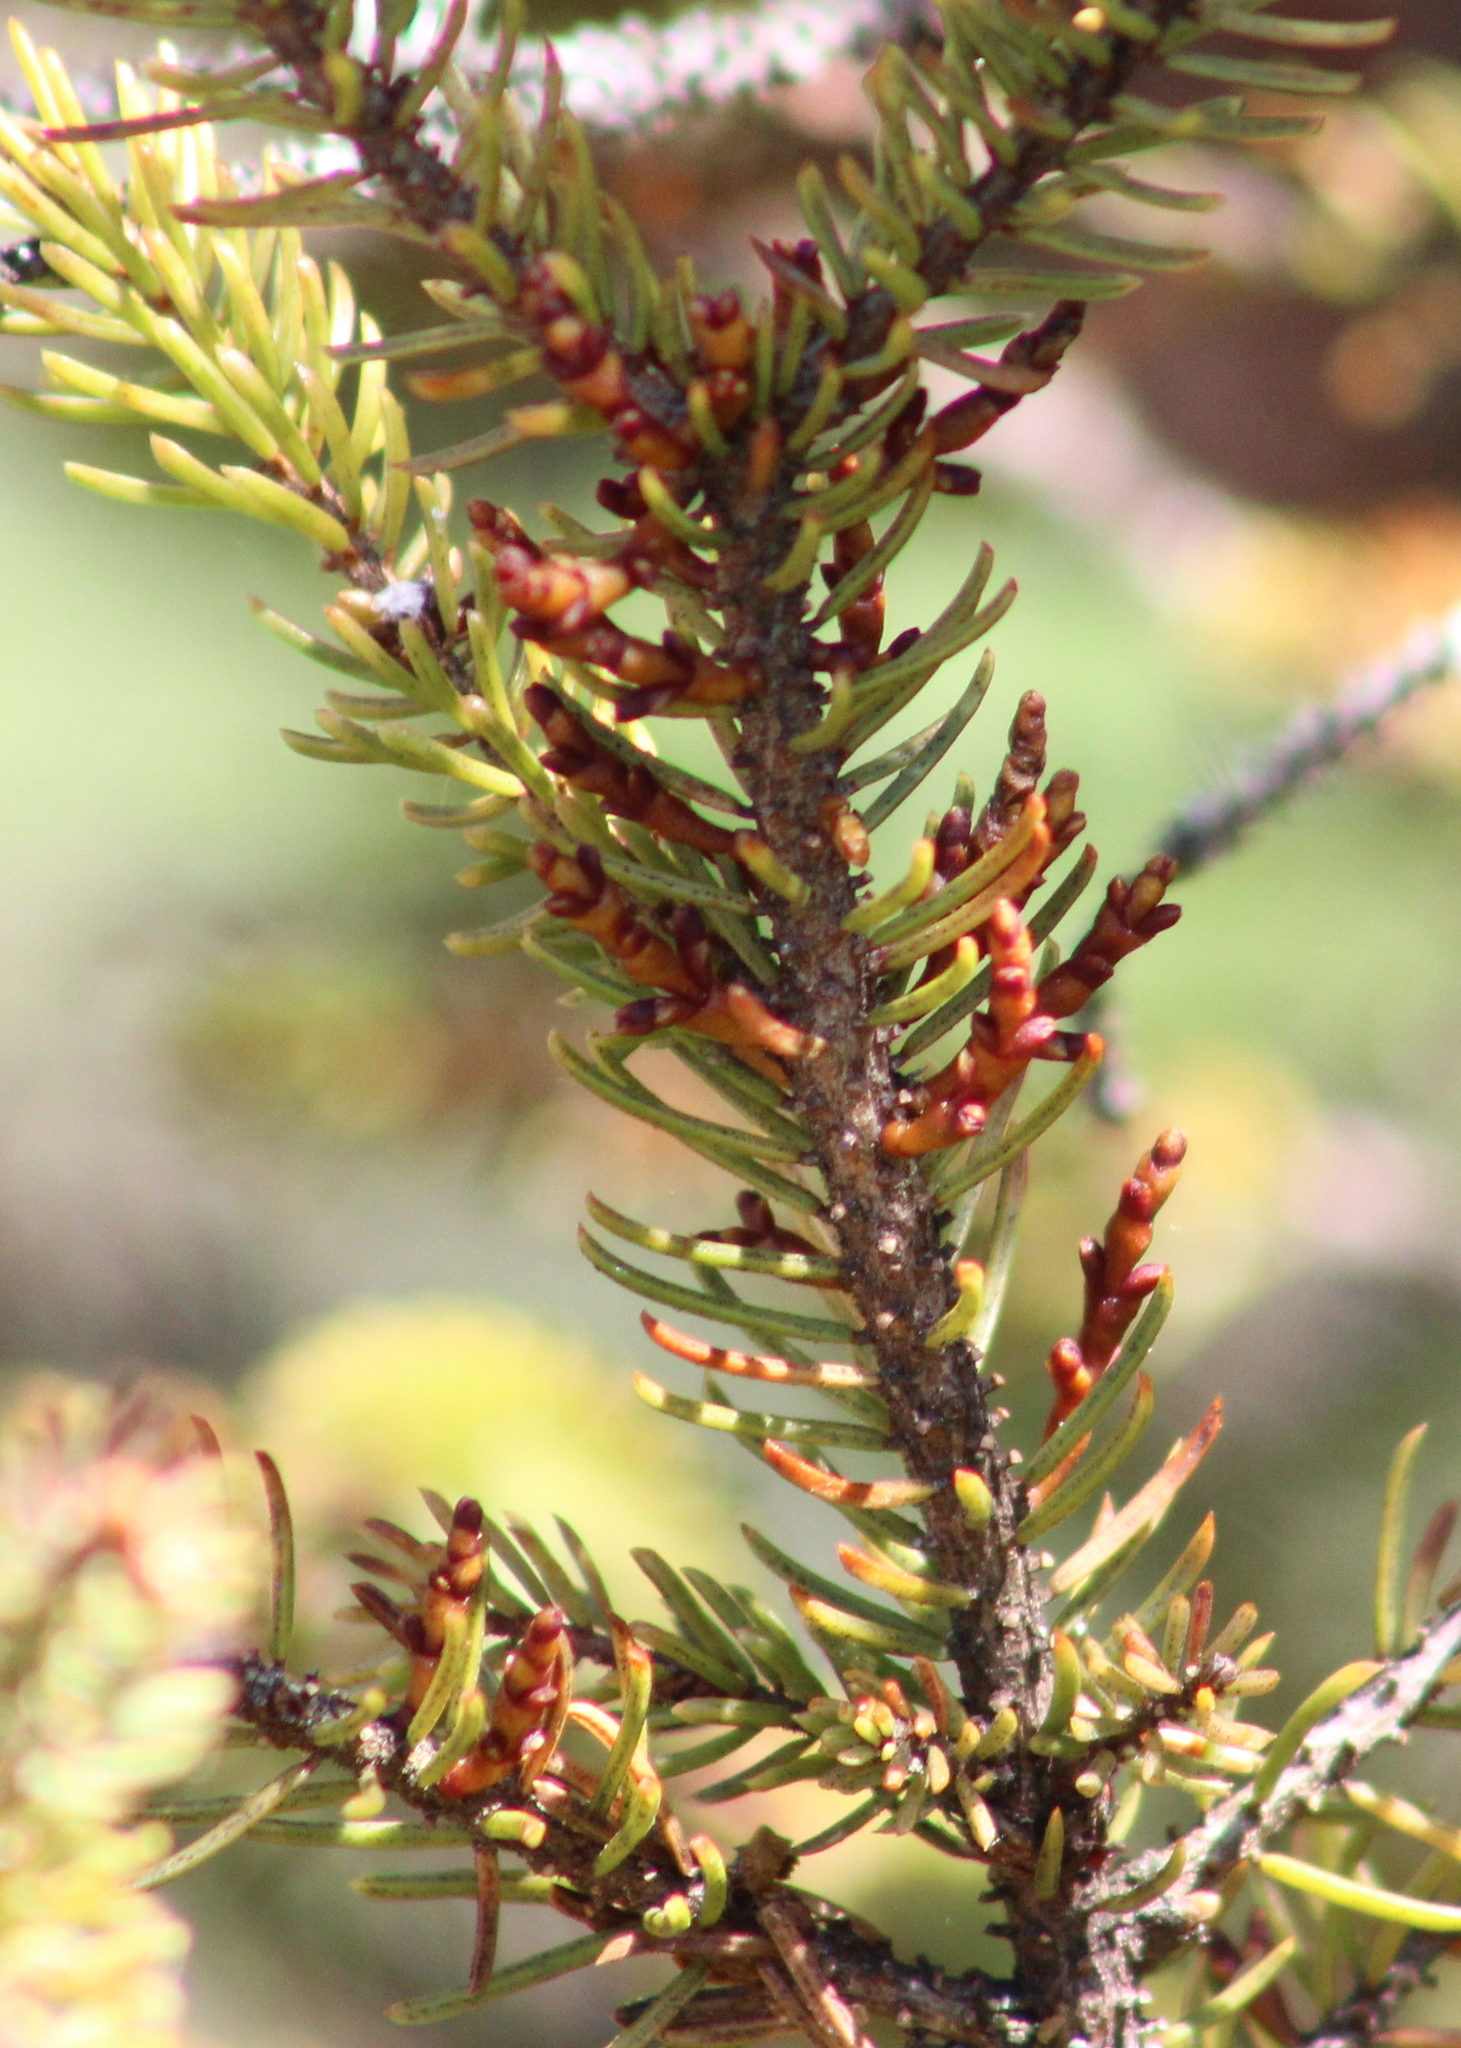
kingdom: Plantae
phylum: Tracheophyta
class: Magnoliopsida
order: Santalales
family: Viscaceae
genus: Arceuthobium
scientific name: Arceuthobium pusillum
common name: Dwarf-mistletoe
